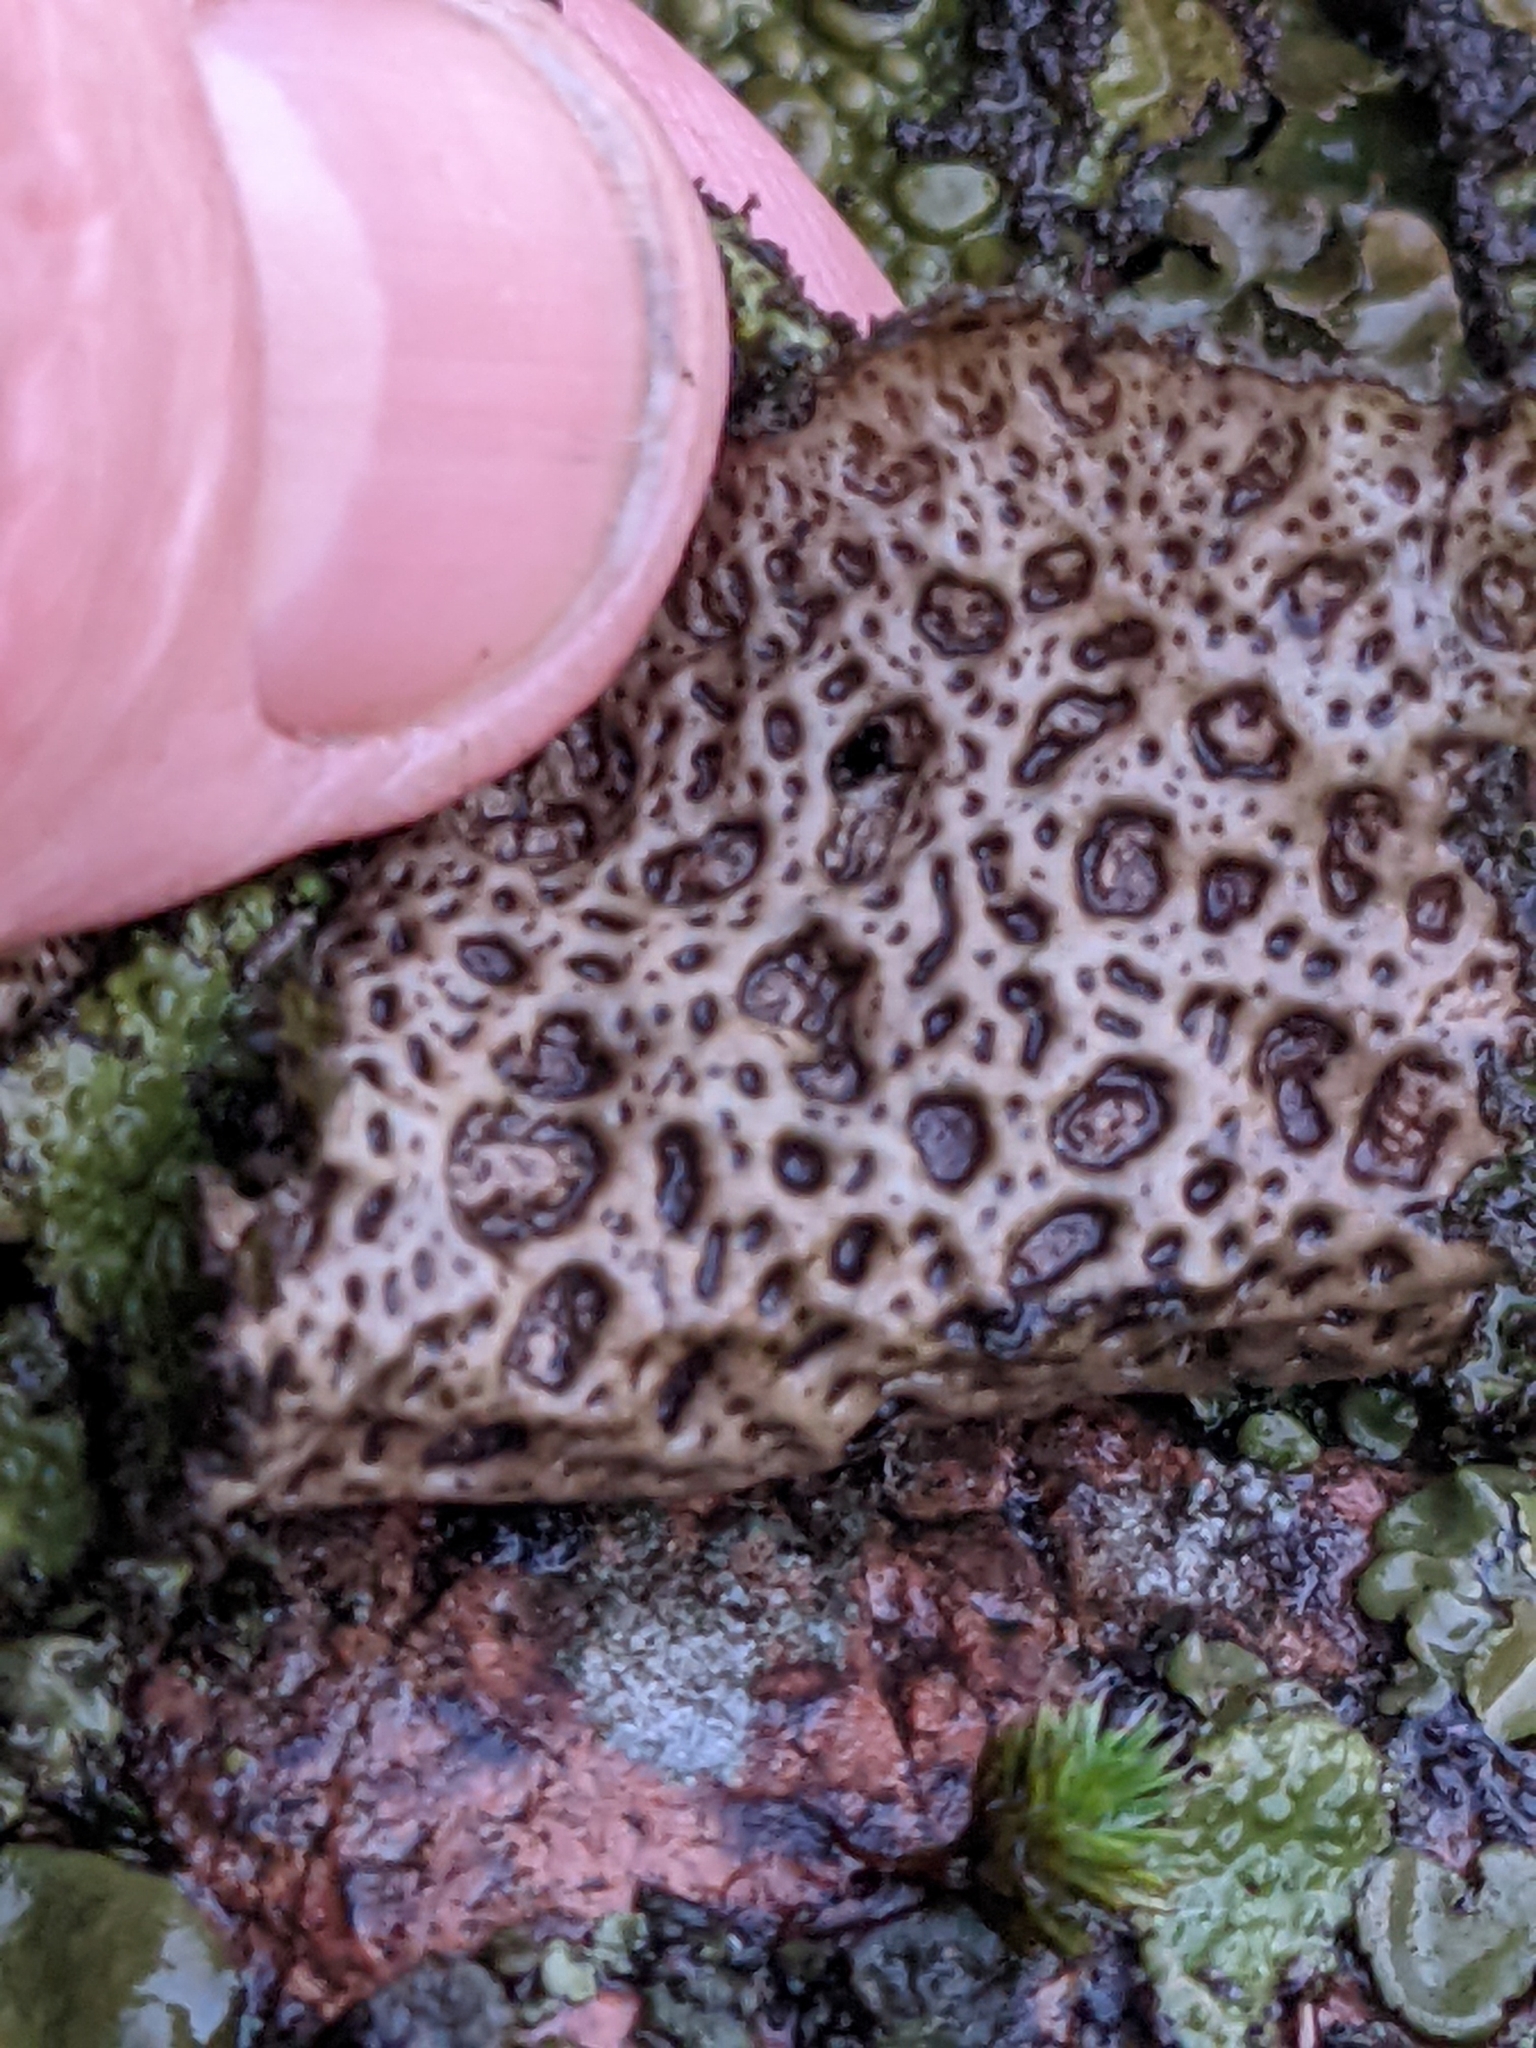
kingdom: Fungi
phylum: Ascomycota
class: Lecanoromycetes
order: Umbilicariales
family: Umbilicariaceae
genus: Lasallia
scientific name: Lasallia pustulata
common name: Blistered toadskin lichen
